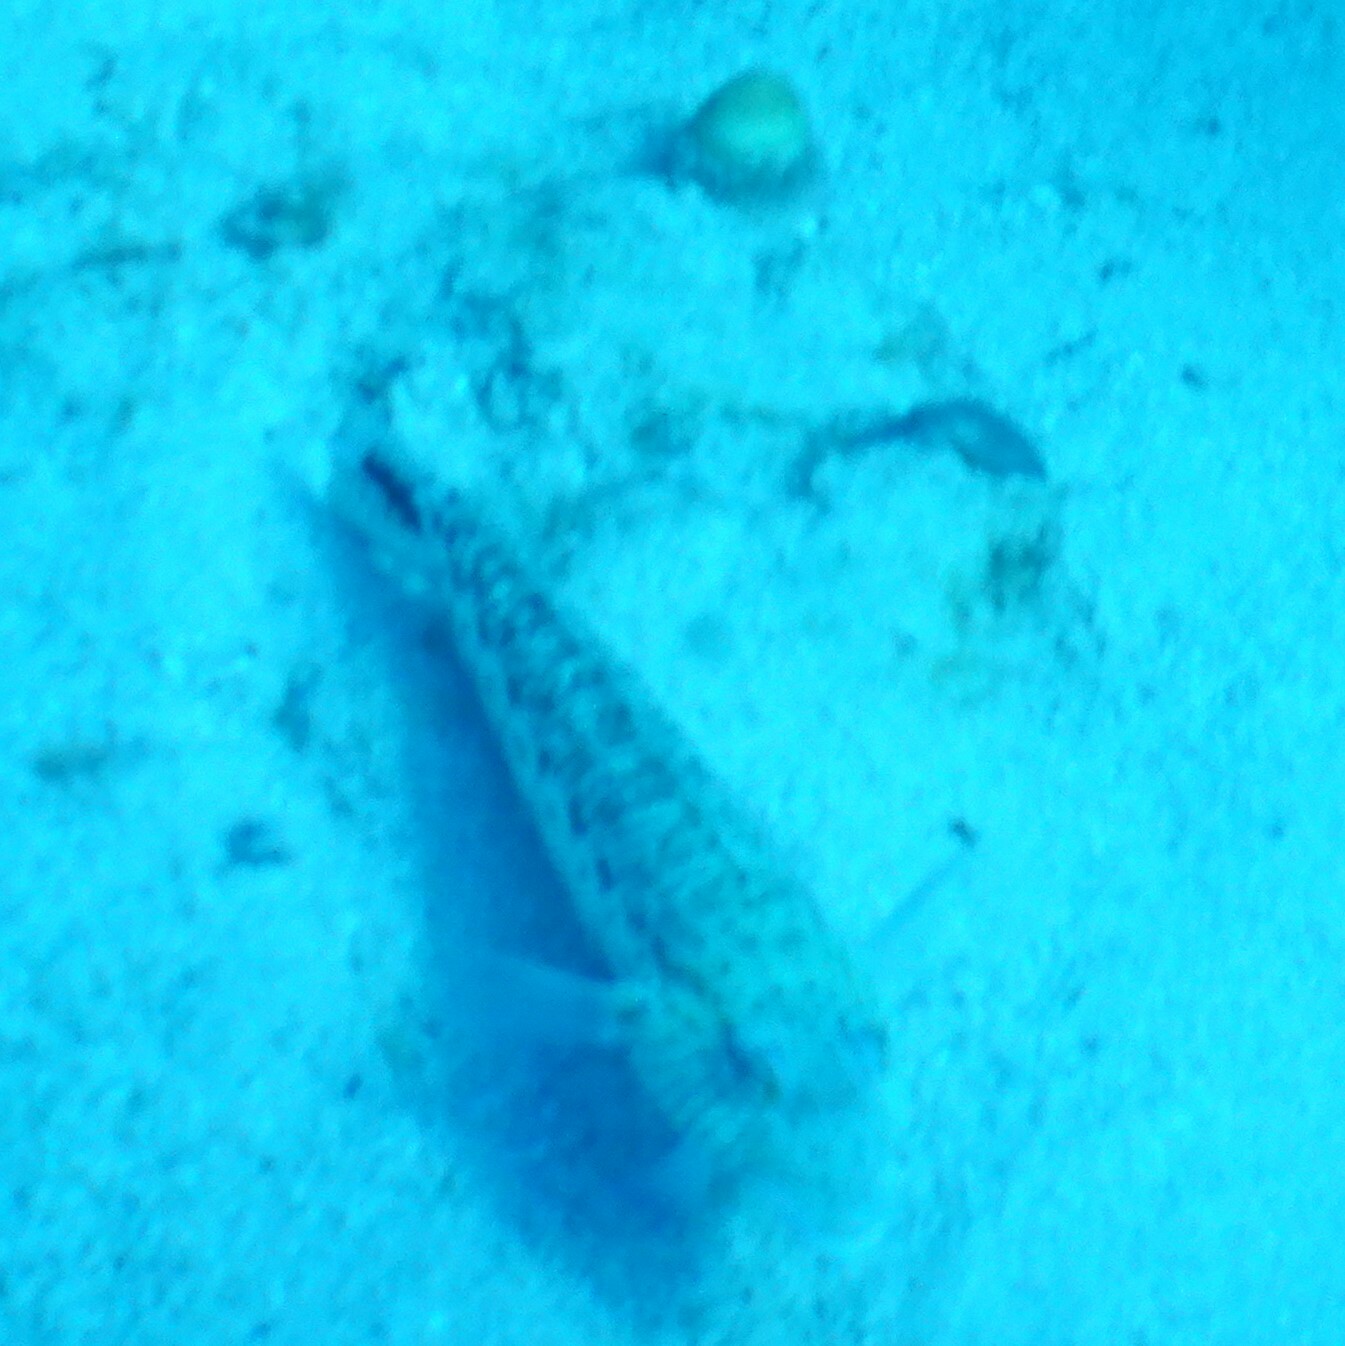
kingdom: Animalia
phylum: Chordata
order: Perciformes
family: Pinguipedidae
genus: Parapercis
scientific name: Parapercis hexophtalma
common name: Speckled sandperch
